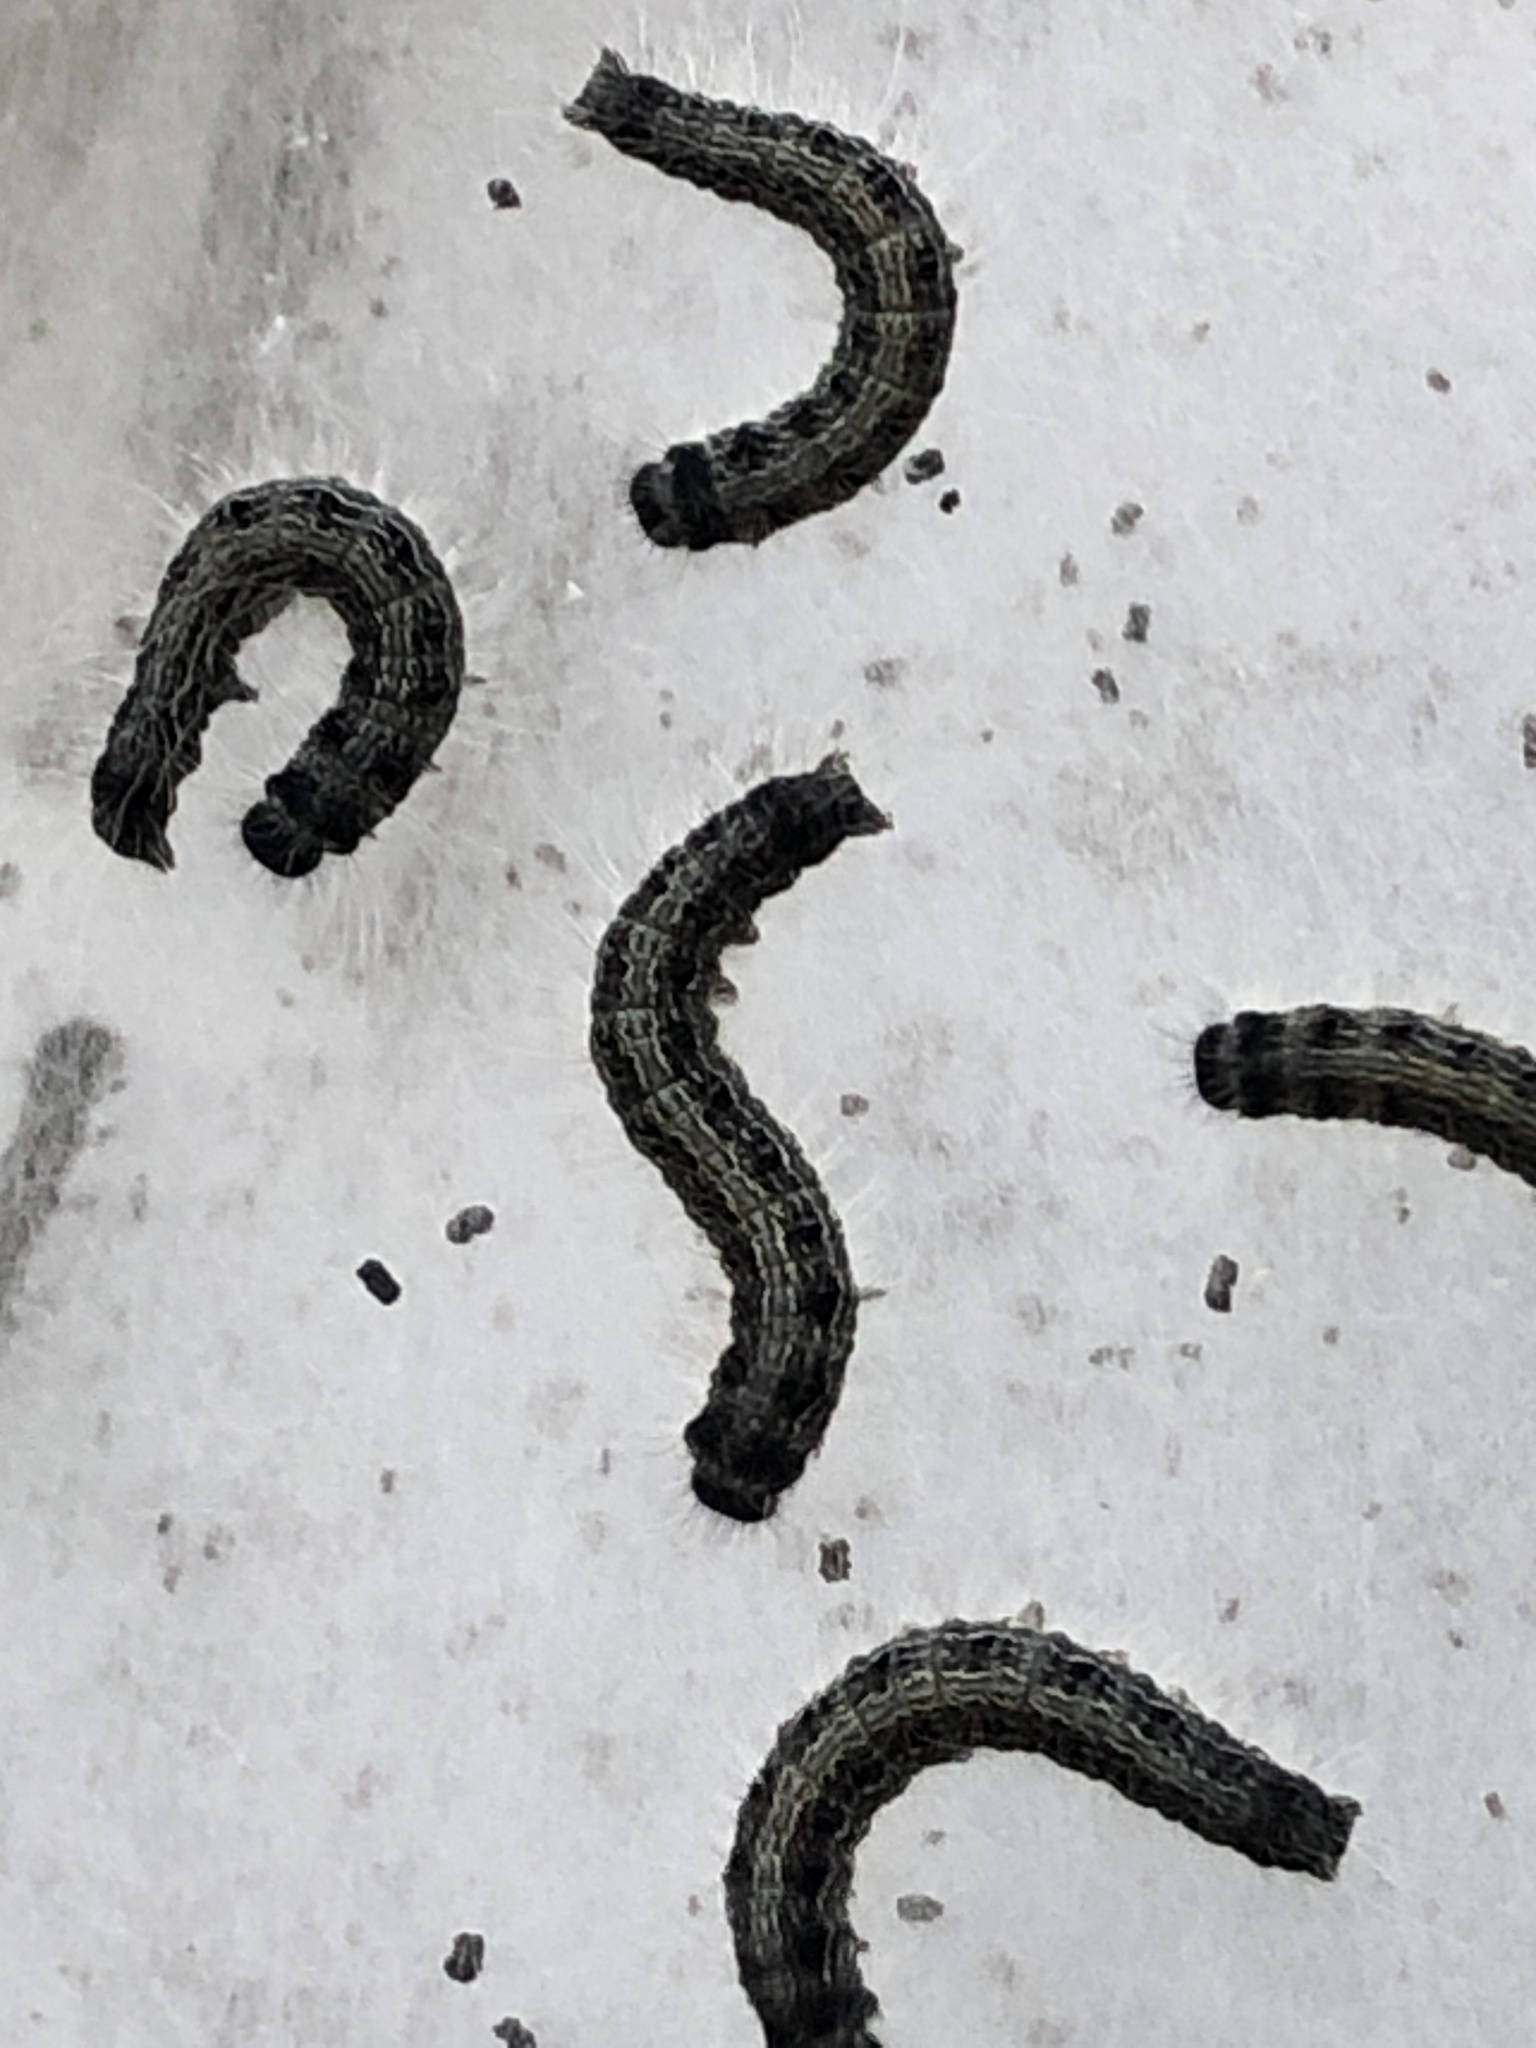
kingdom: Animalia
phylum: Arthropoda
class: Insecta
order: Lepidoptera
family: Lasiocampidae
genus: Malacosoma
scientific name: Malacosoma americana
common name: Eastern tent caterpillar moth
